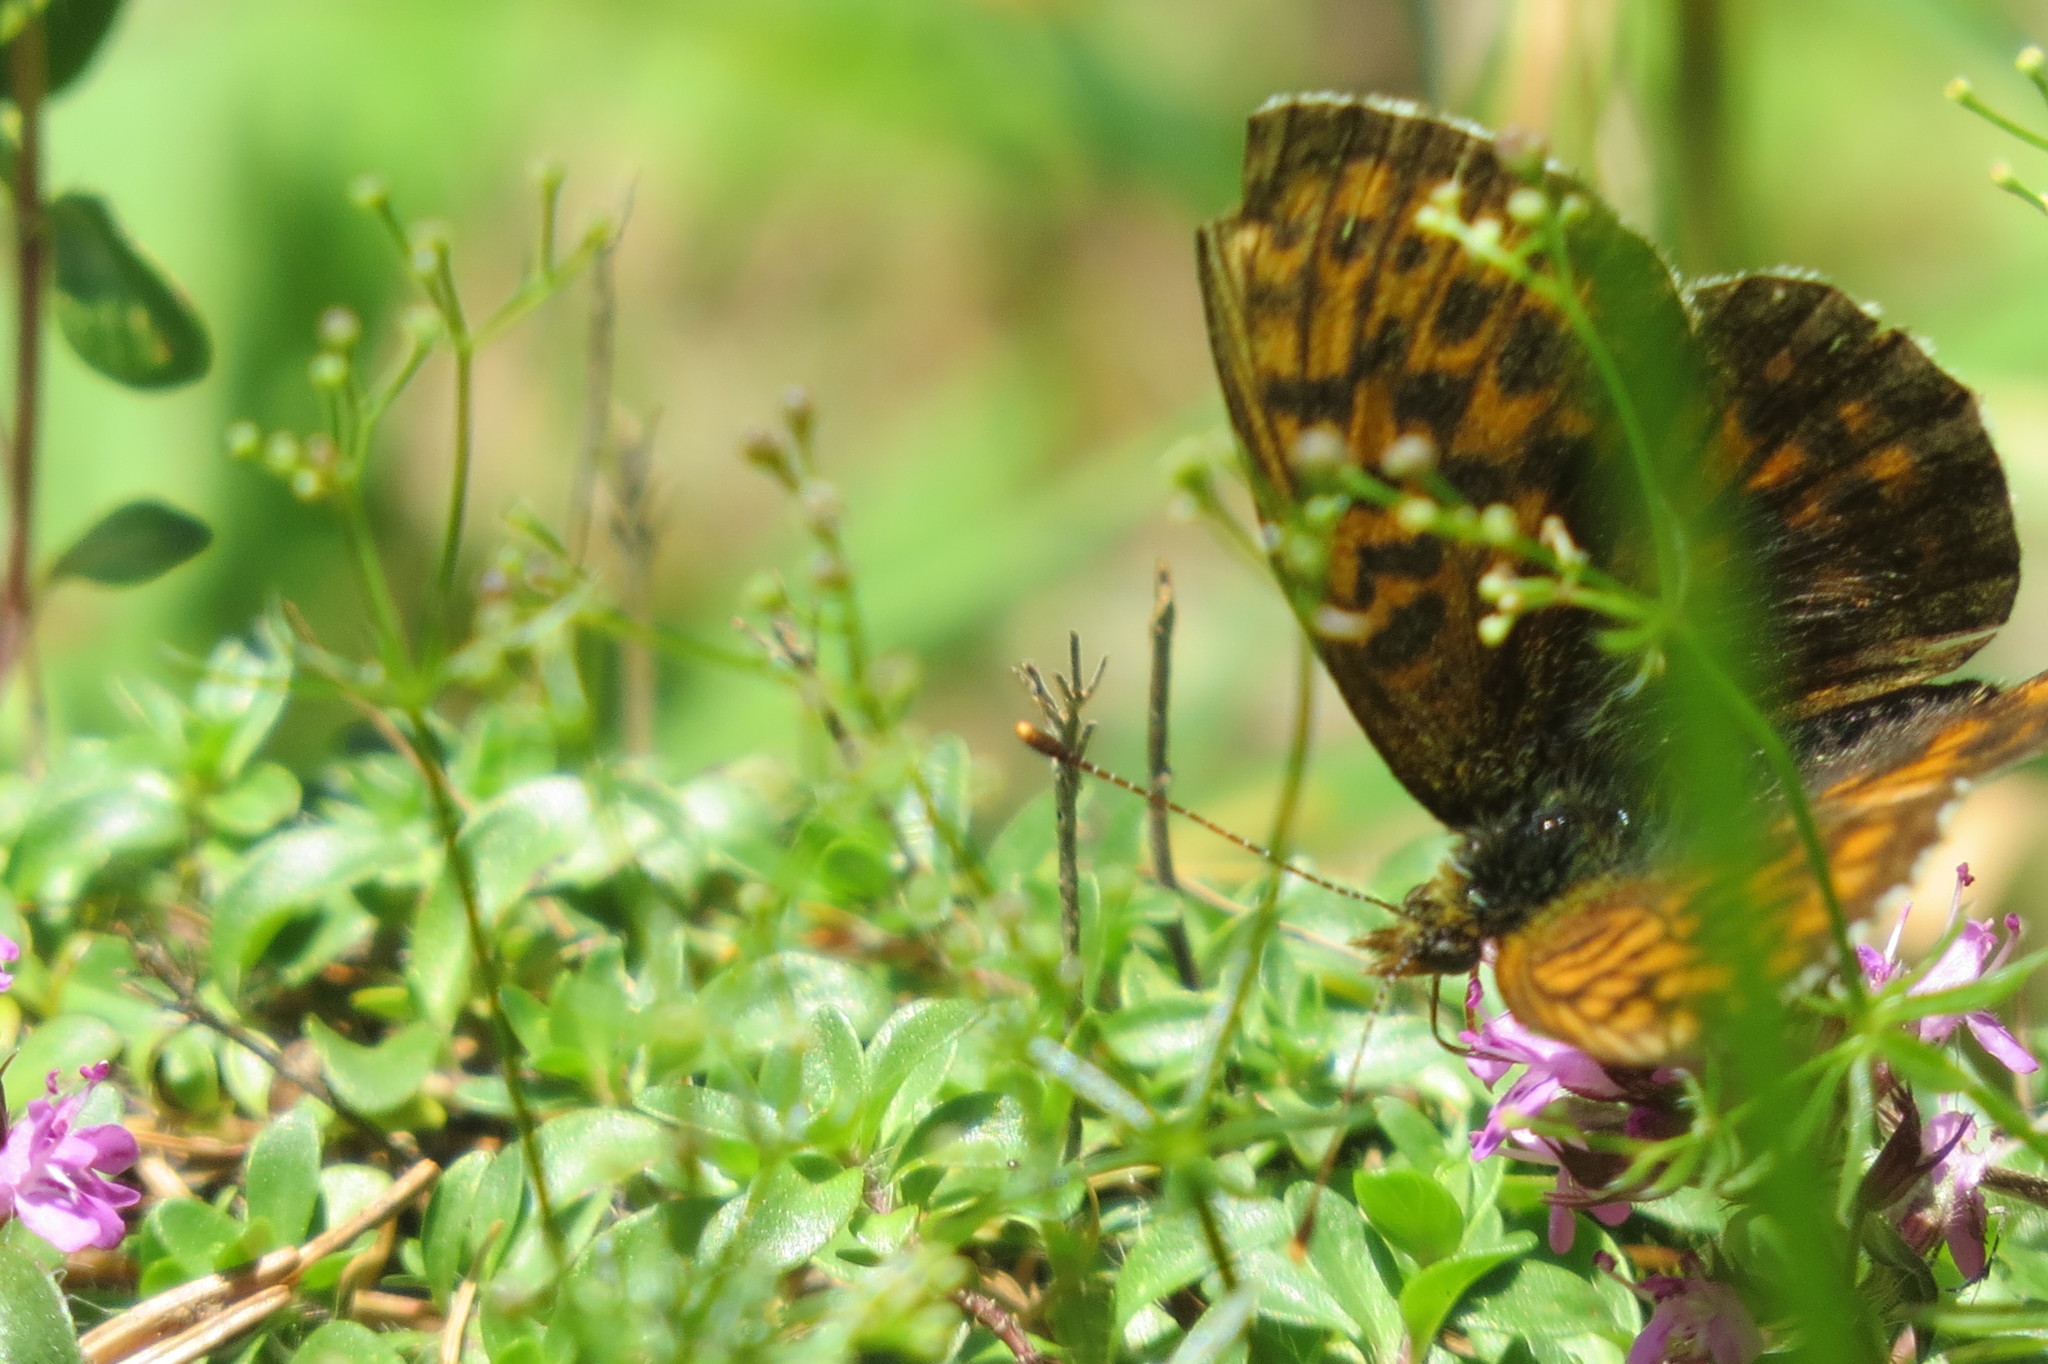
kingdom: Animalia
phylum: Arthropoda
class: Insecta
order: Lepidoptera
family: Nymphalidae
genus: Boloria
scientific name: Boloria thore
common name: Thor's fritillary
